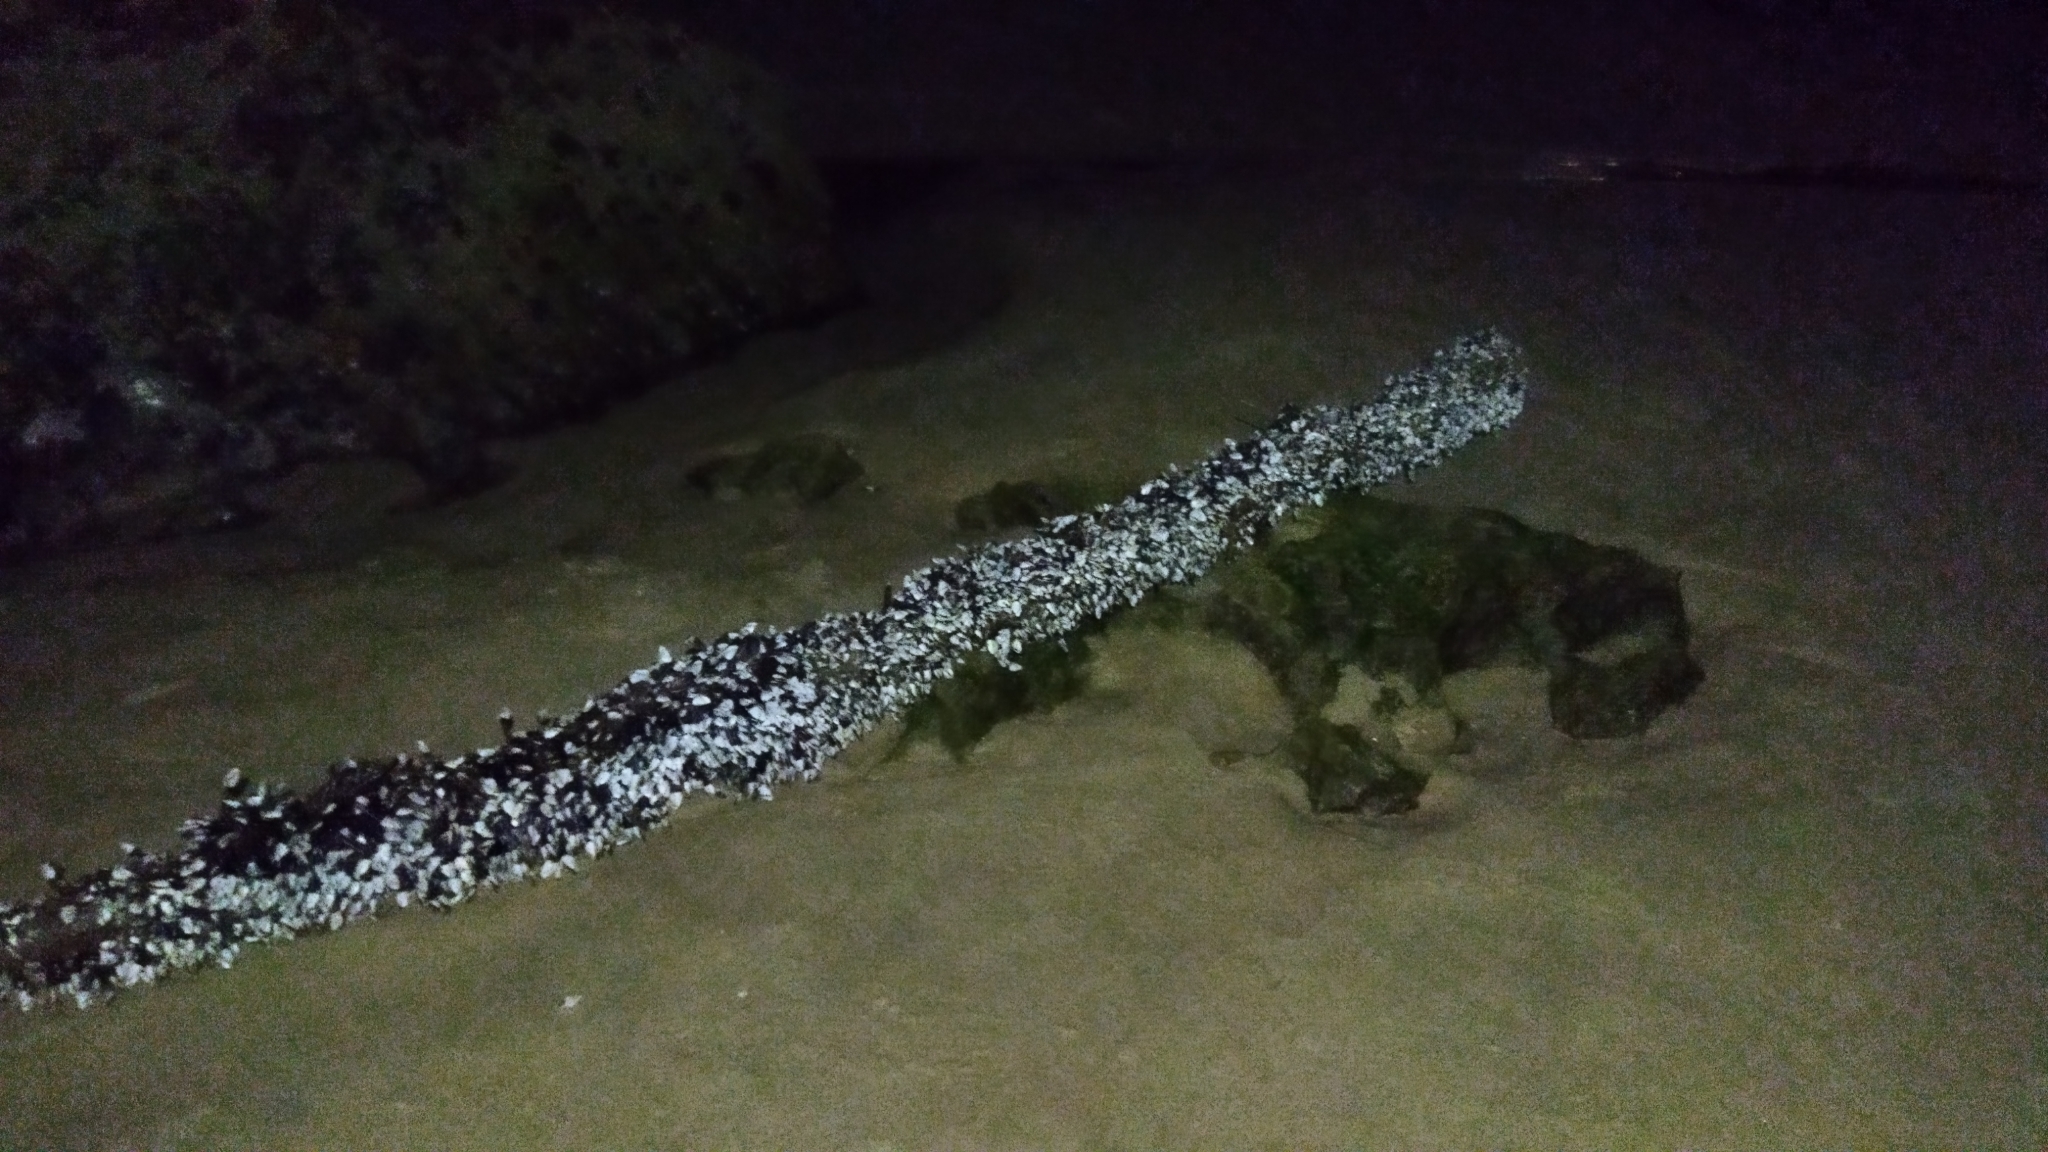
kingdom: Animalia
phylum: Arthropoda
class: Maxillopoda
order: Pedunculata
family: Lepadidae
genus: Lepas
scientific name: Lepas anatifera
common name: Common goose barnacle
